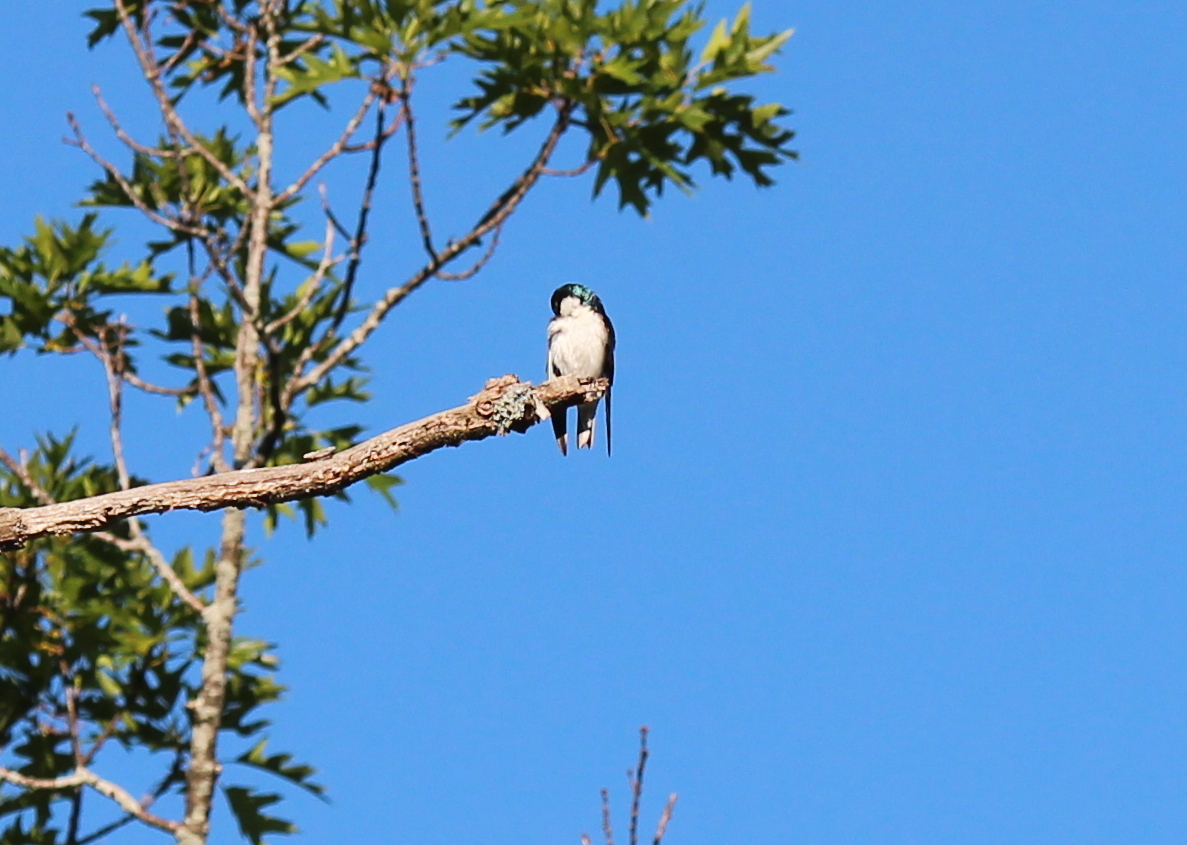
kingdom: Animalia
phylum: Chordata
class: Aves
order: Passeriformes
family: Hirundinidae
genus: Tachycineta
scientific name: Tachycineta bicolor
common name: Tree swallow
